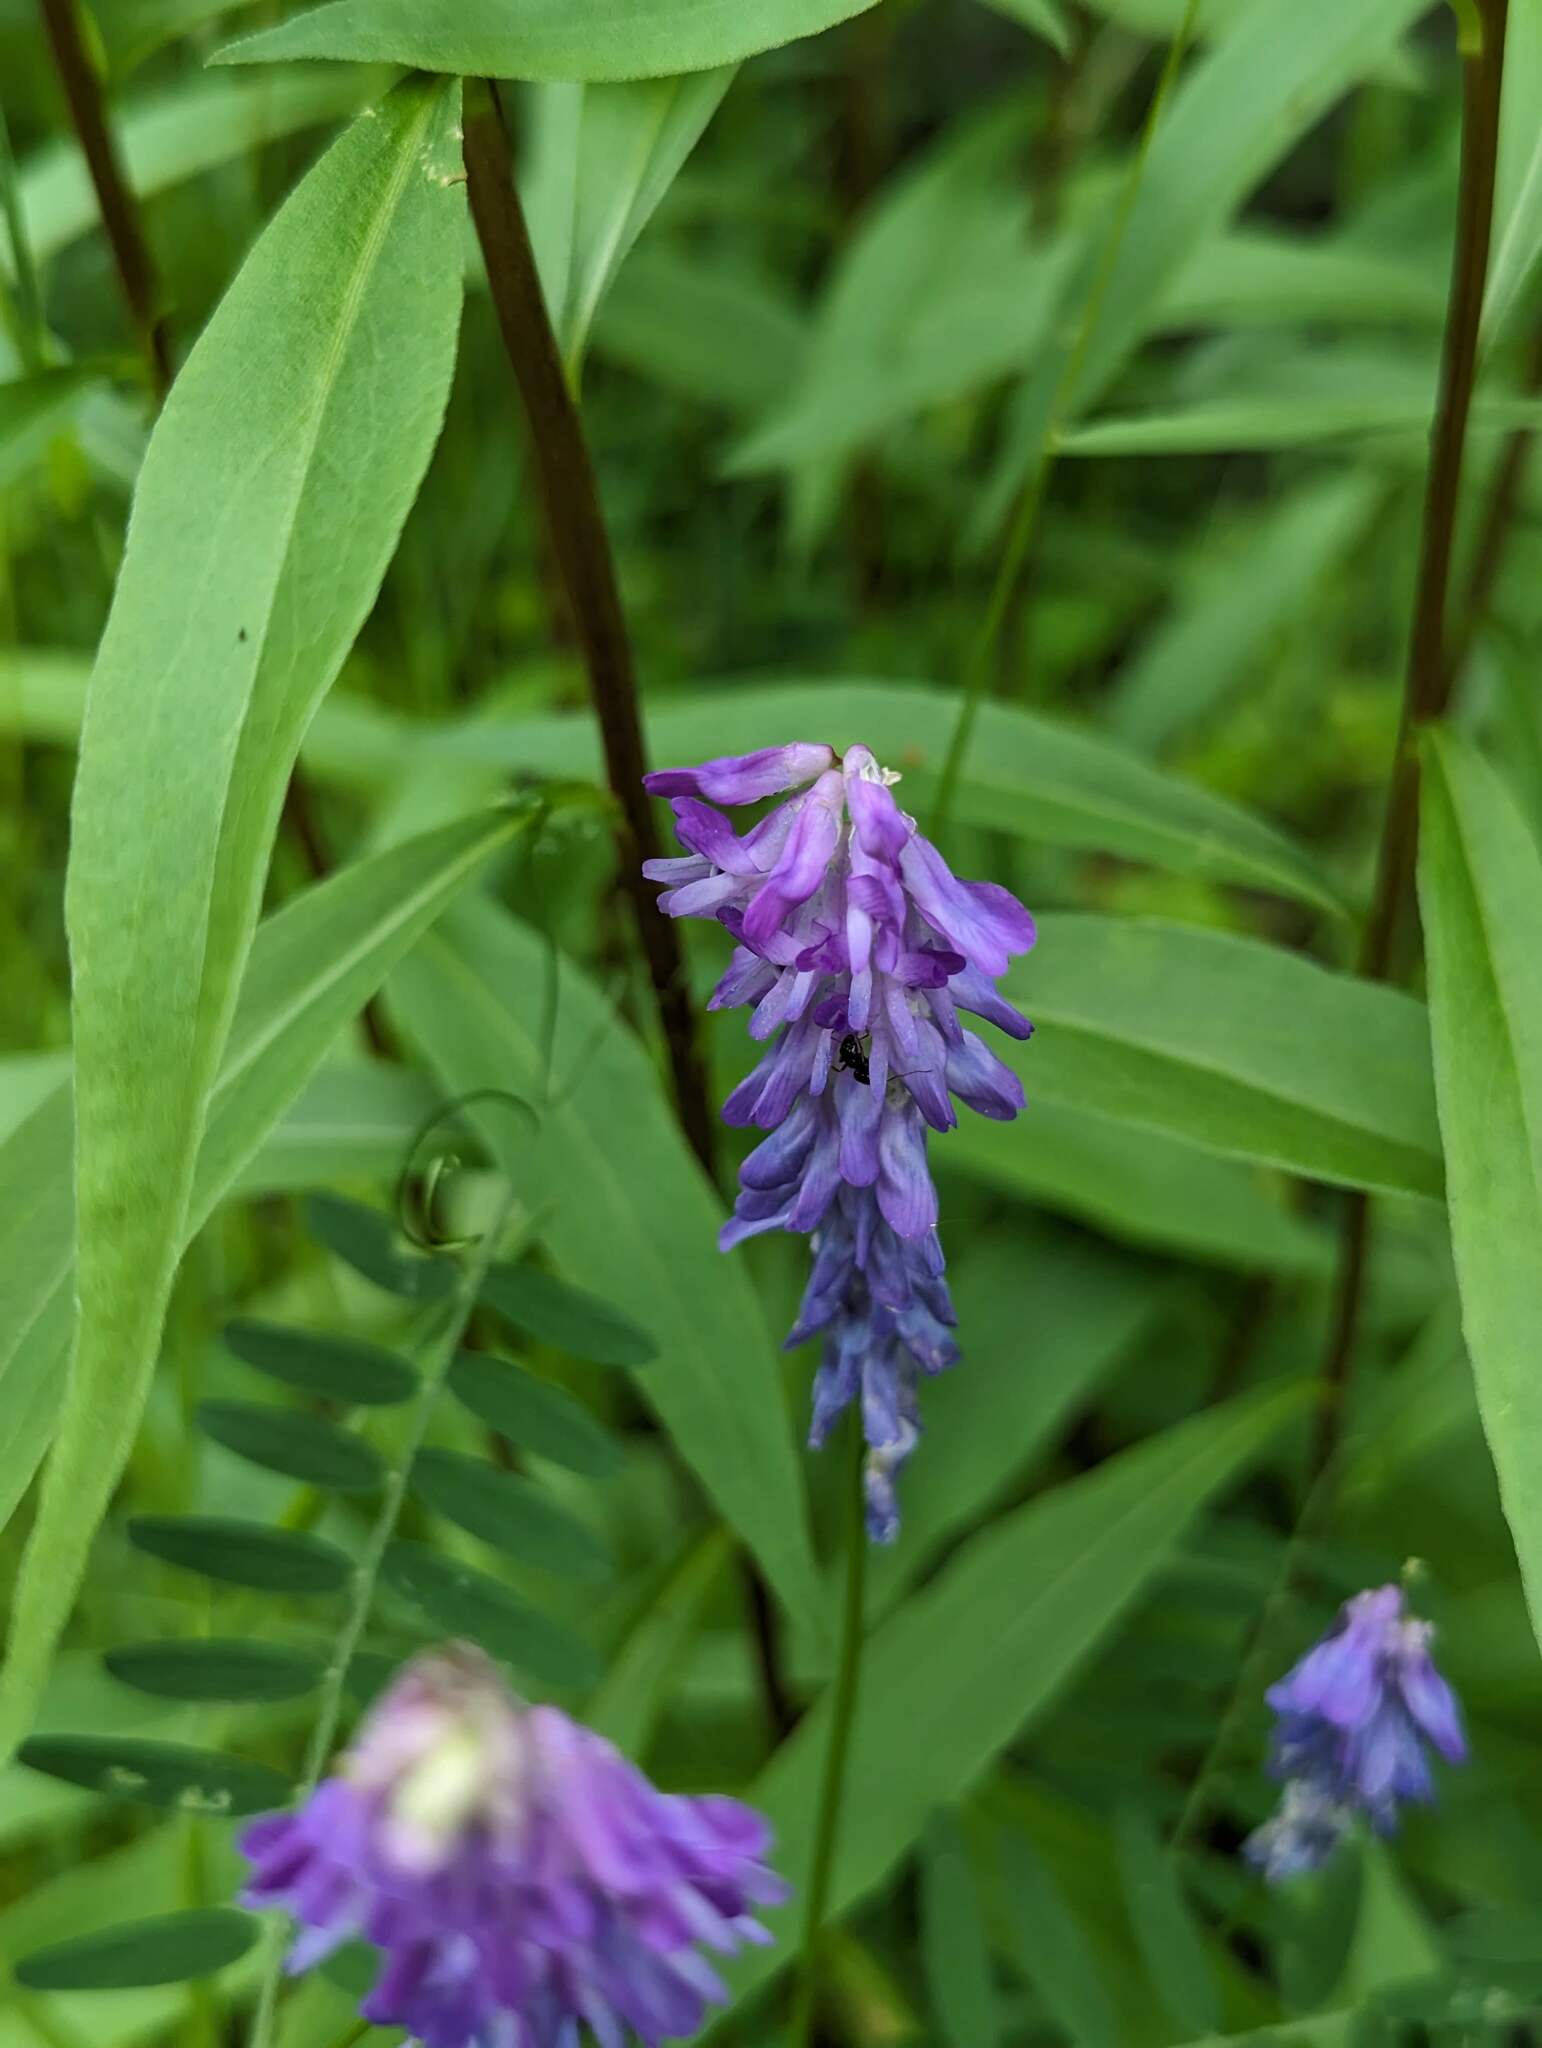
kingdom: Plantae
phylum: Tracheophyta
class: Magnoliopsida
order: Fabales
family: Fabaceae
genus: Vicia
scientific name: Vicia cracca
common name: Bird vetch
